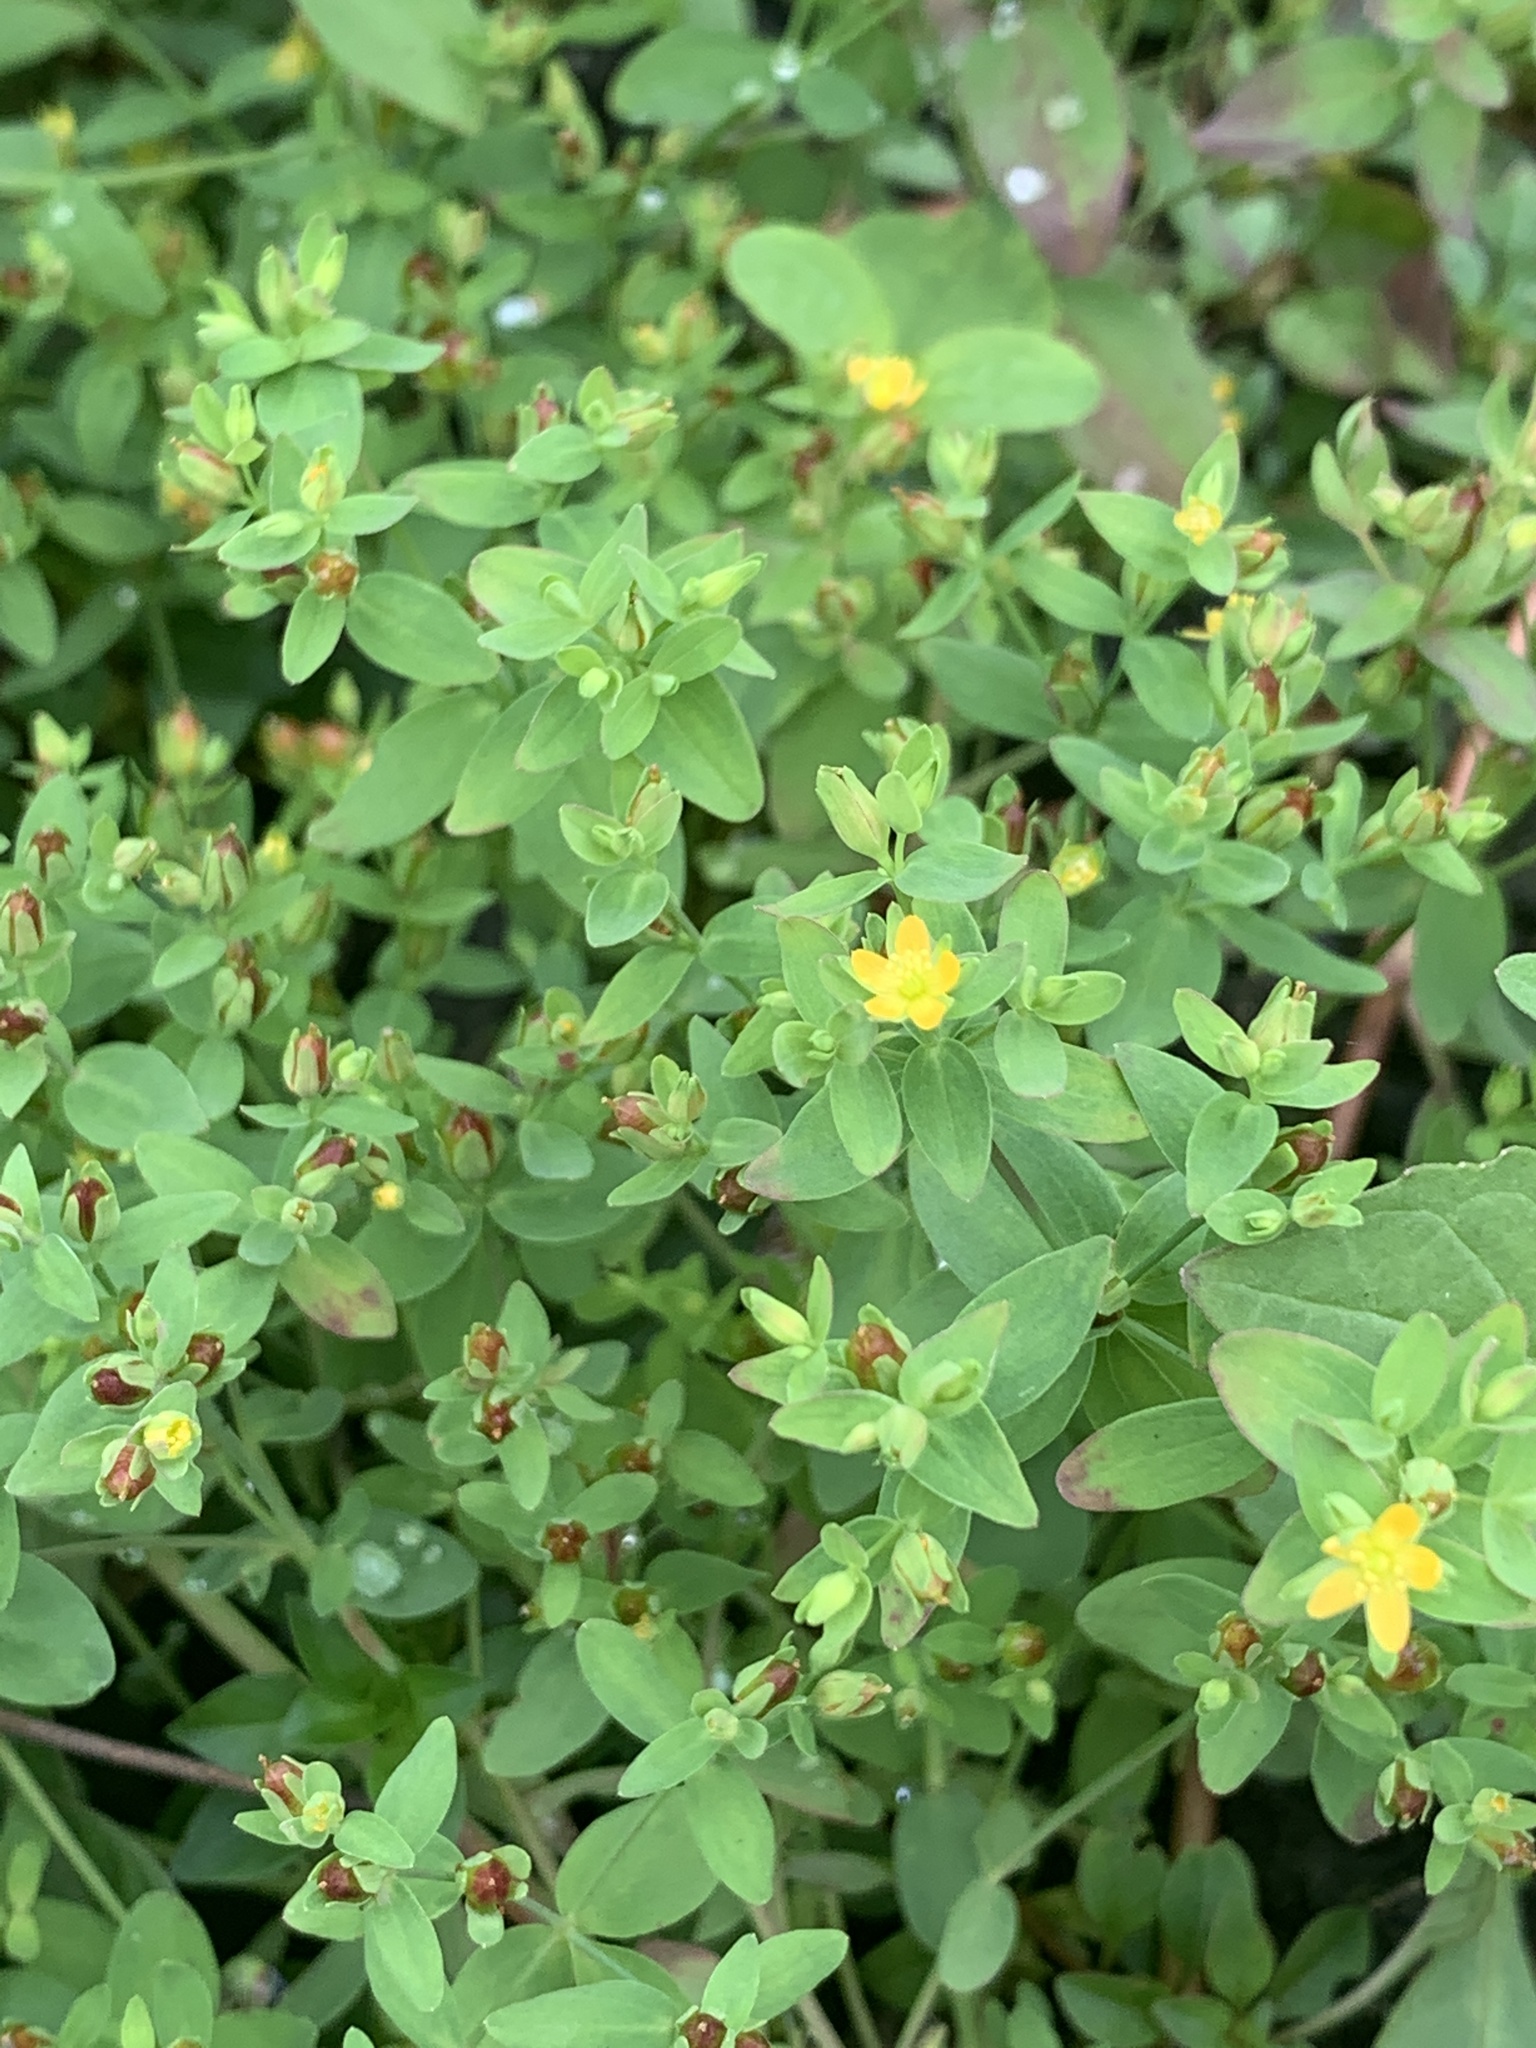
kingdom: Plantae
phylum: Tracheophyta
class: Magnoliopsida
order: Malpighiales
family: Hypericaceae
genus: Hypericum
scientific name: Hypericum mutilum
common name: Dwarf st. john's-wort
